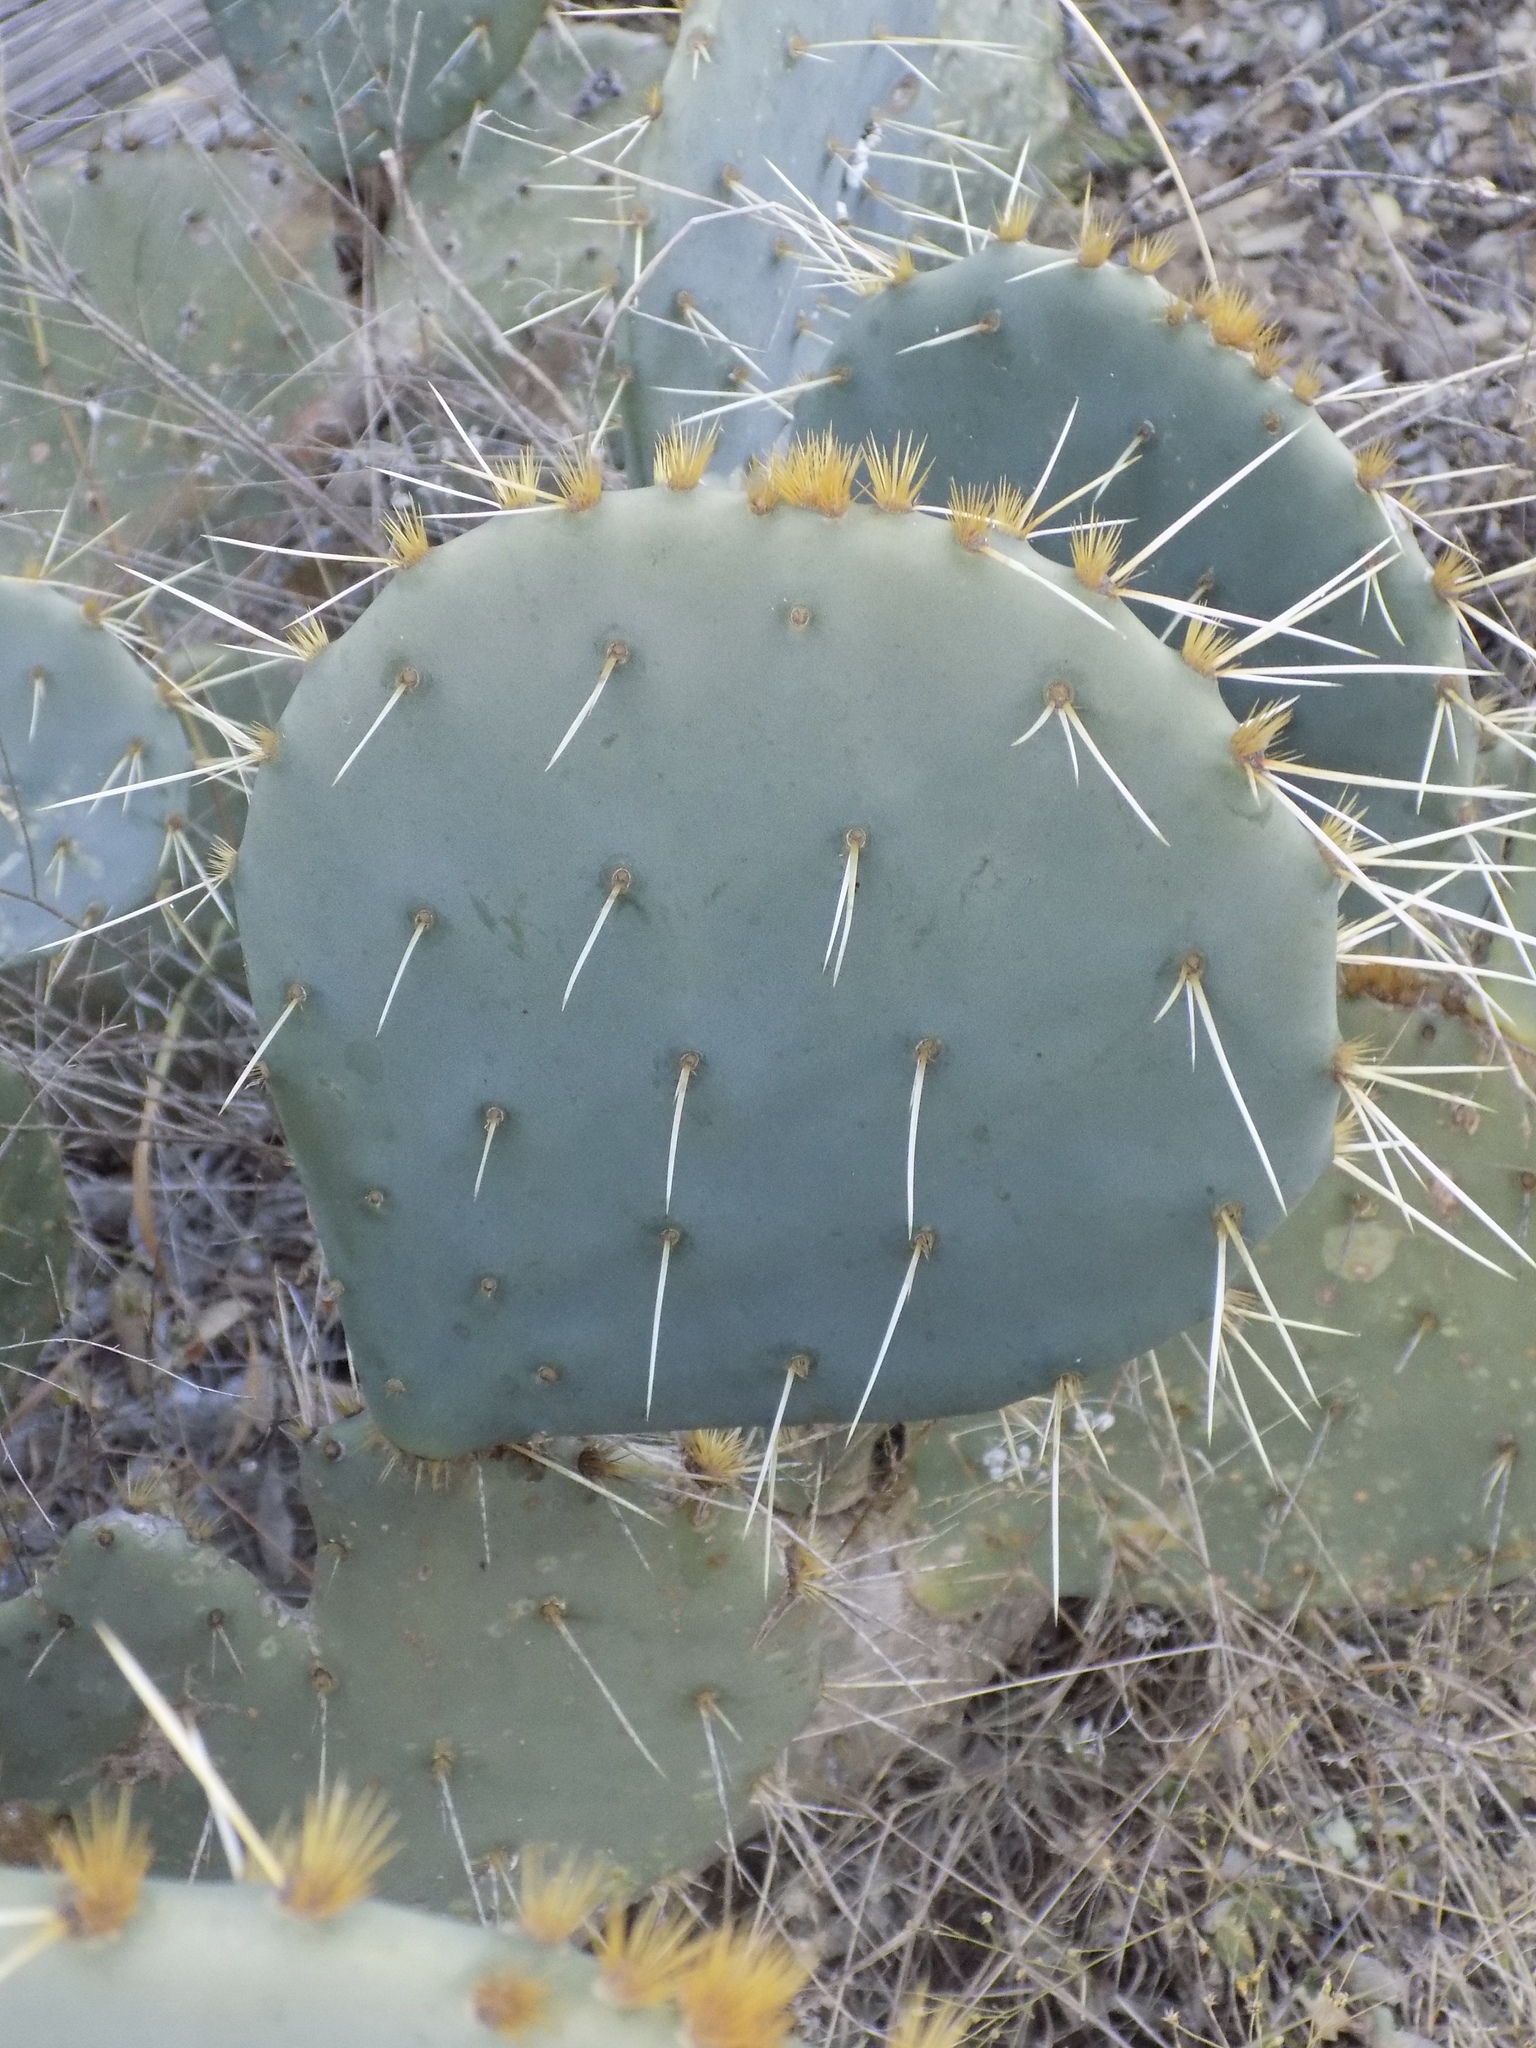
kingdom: Plantae
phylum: Tracheophyta
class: Magnoliopsida
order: Caryophyllales
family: Cactaceae
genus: Opuntia
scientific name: Opuntia engelmannii
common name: Cactus-apple
